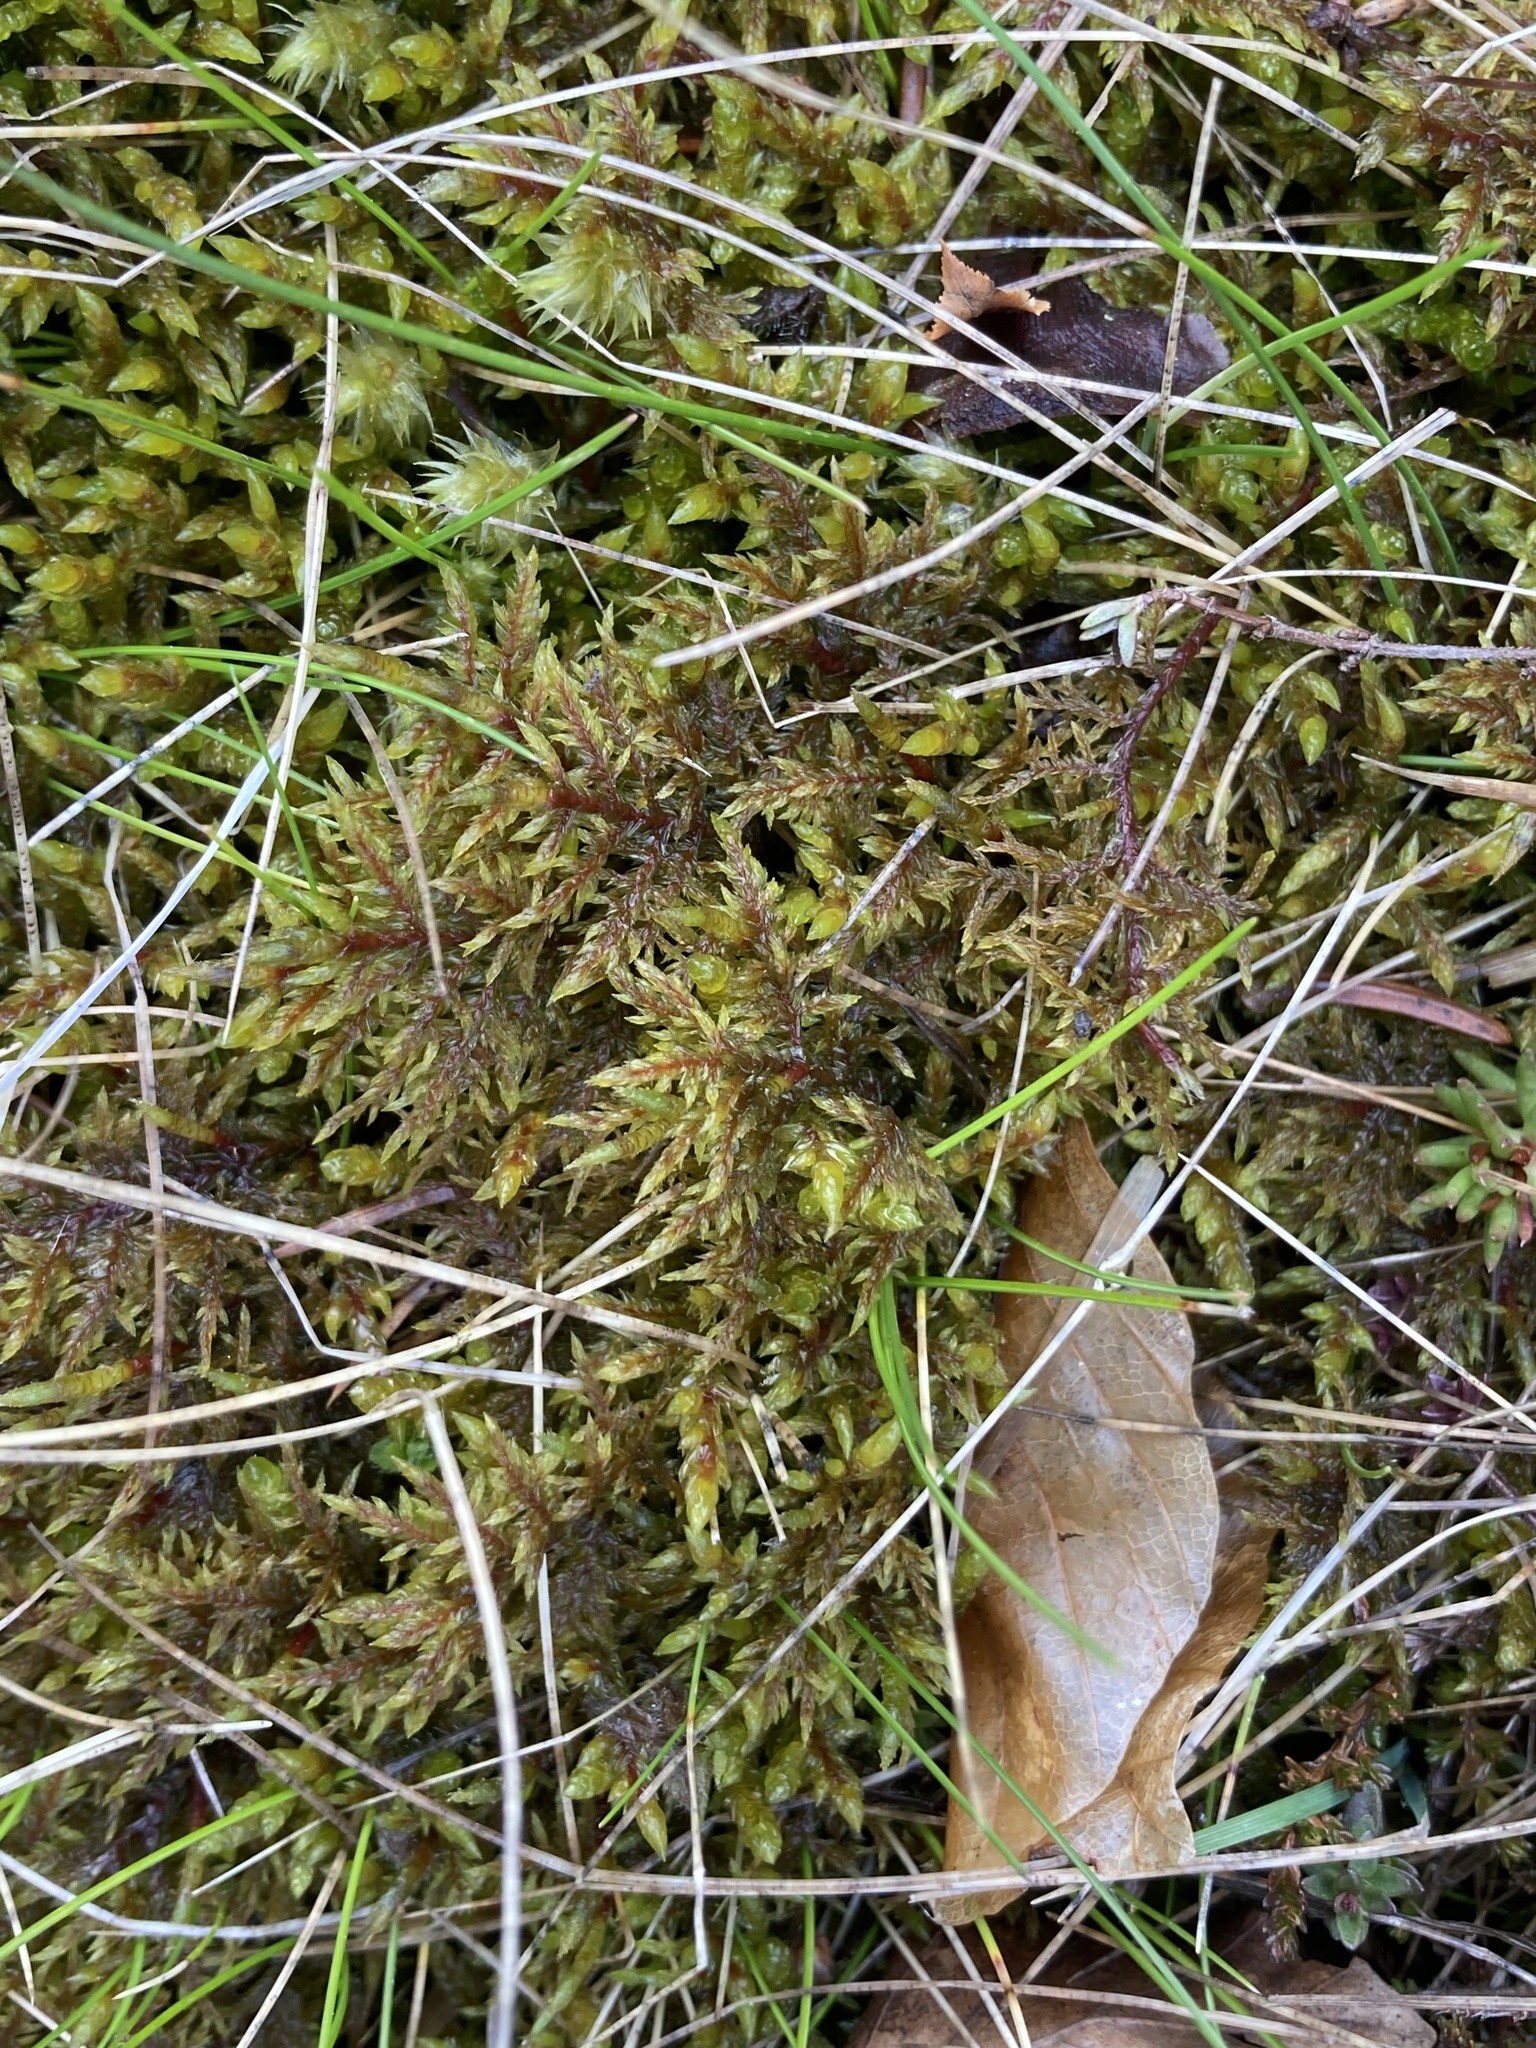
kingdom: Plantae
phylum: Bryophyta
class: Bryopsida
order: Hypnales
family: Hylocomiaceae
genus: Hylocomium
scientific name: Hylocomium splendens
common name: Stairstep moss
